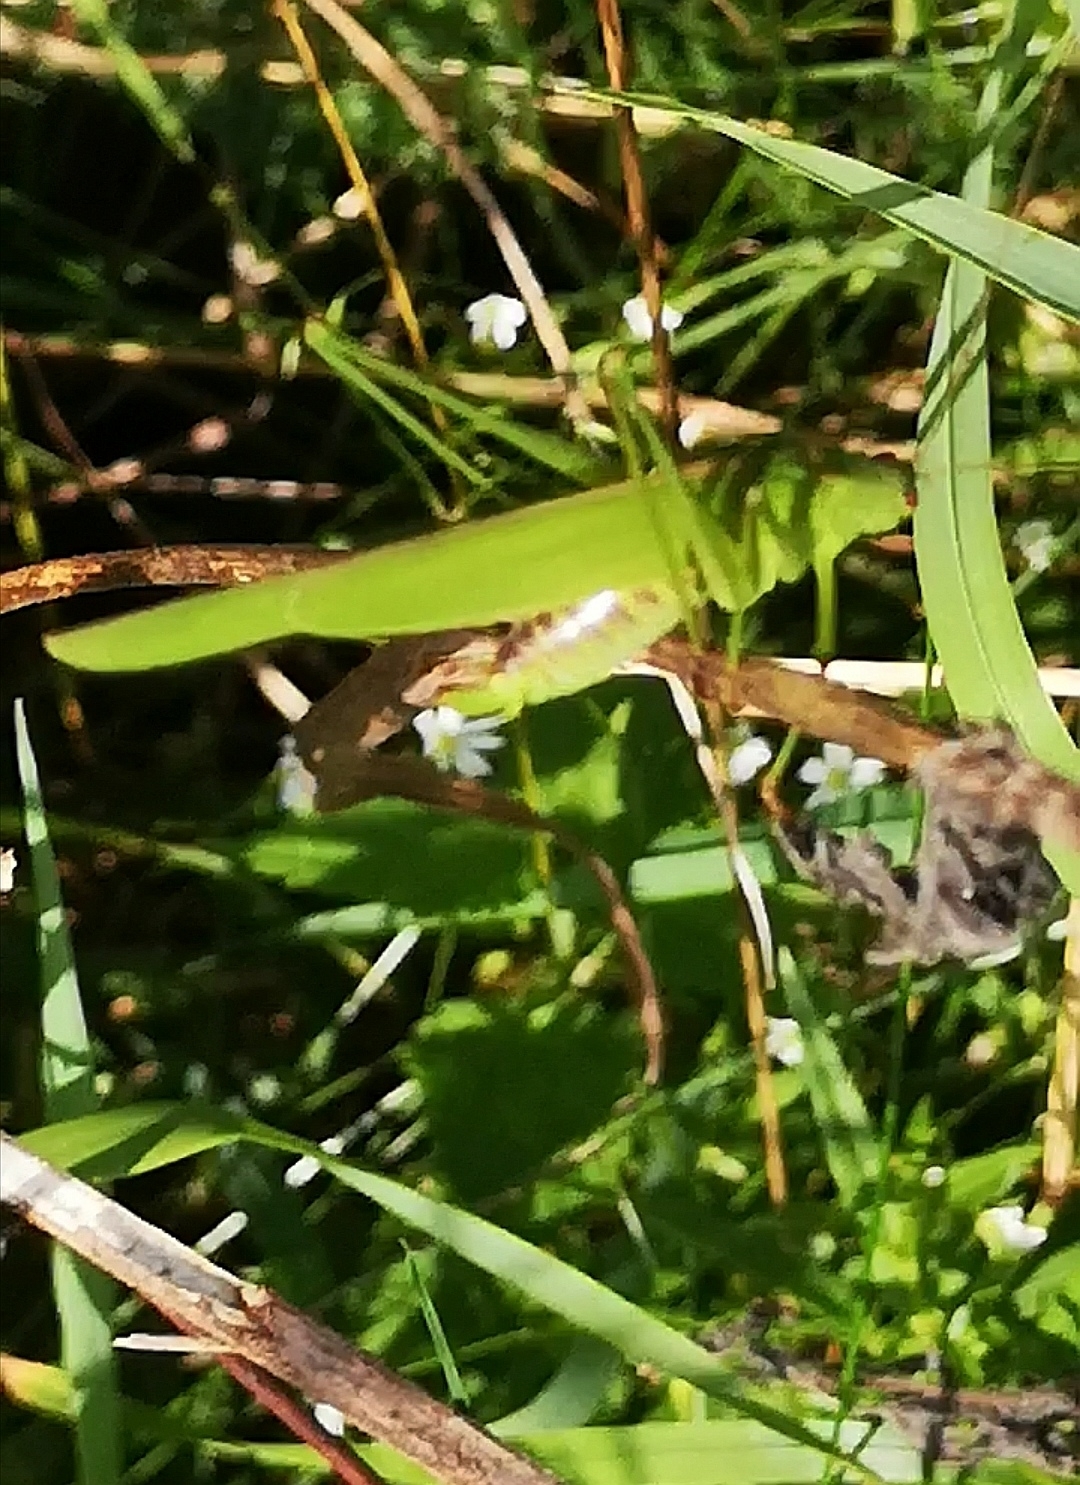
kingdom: Animalia
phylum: Arthropoda
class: Insecta
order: Orthoptera
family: Tettigoniidae
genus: Phaneroptera
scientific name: Phaneroptera falcata
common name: Sickle-bearing bush-cricket
